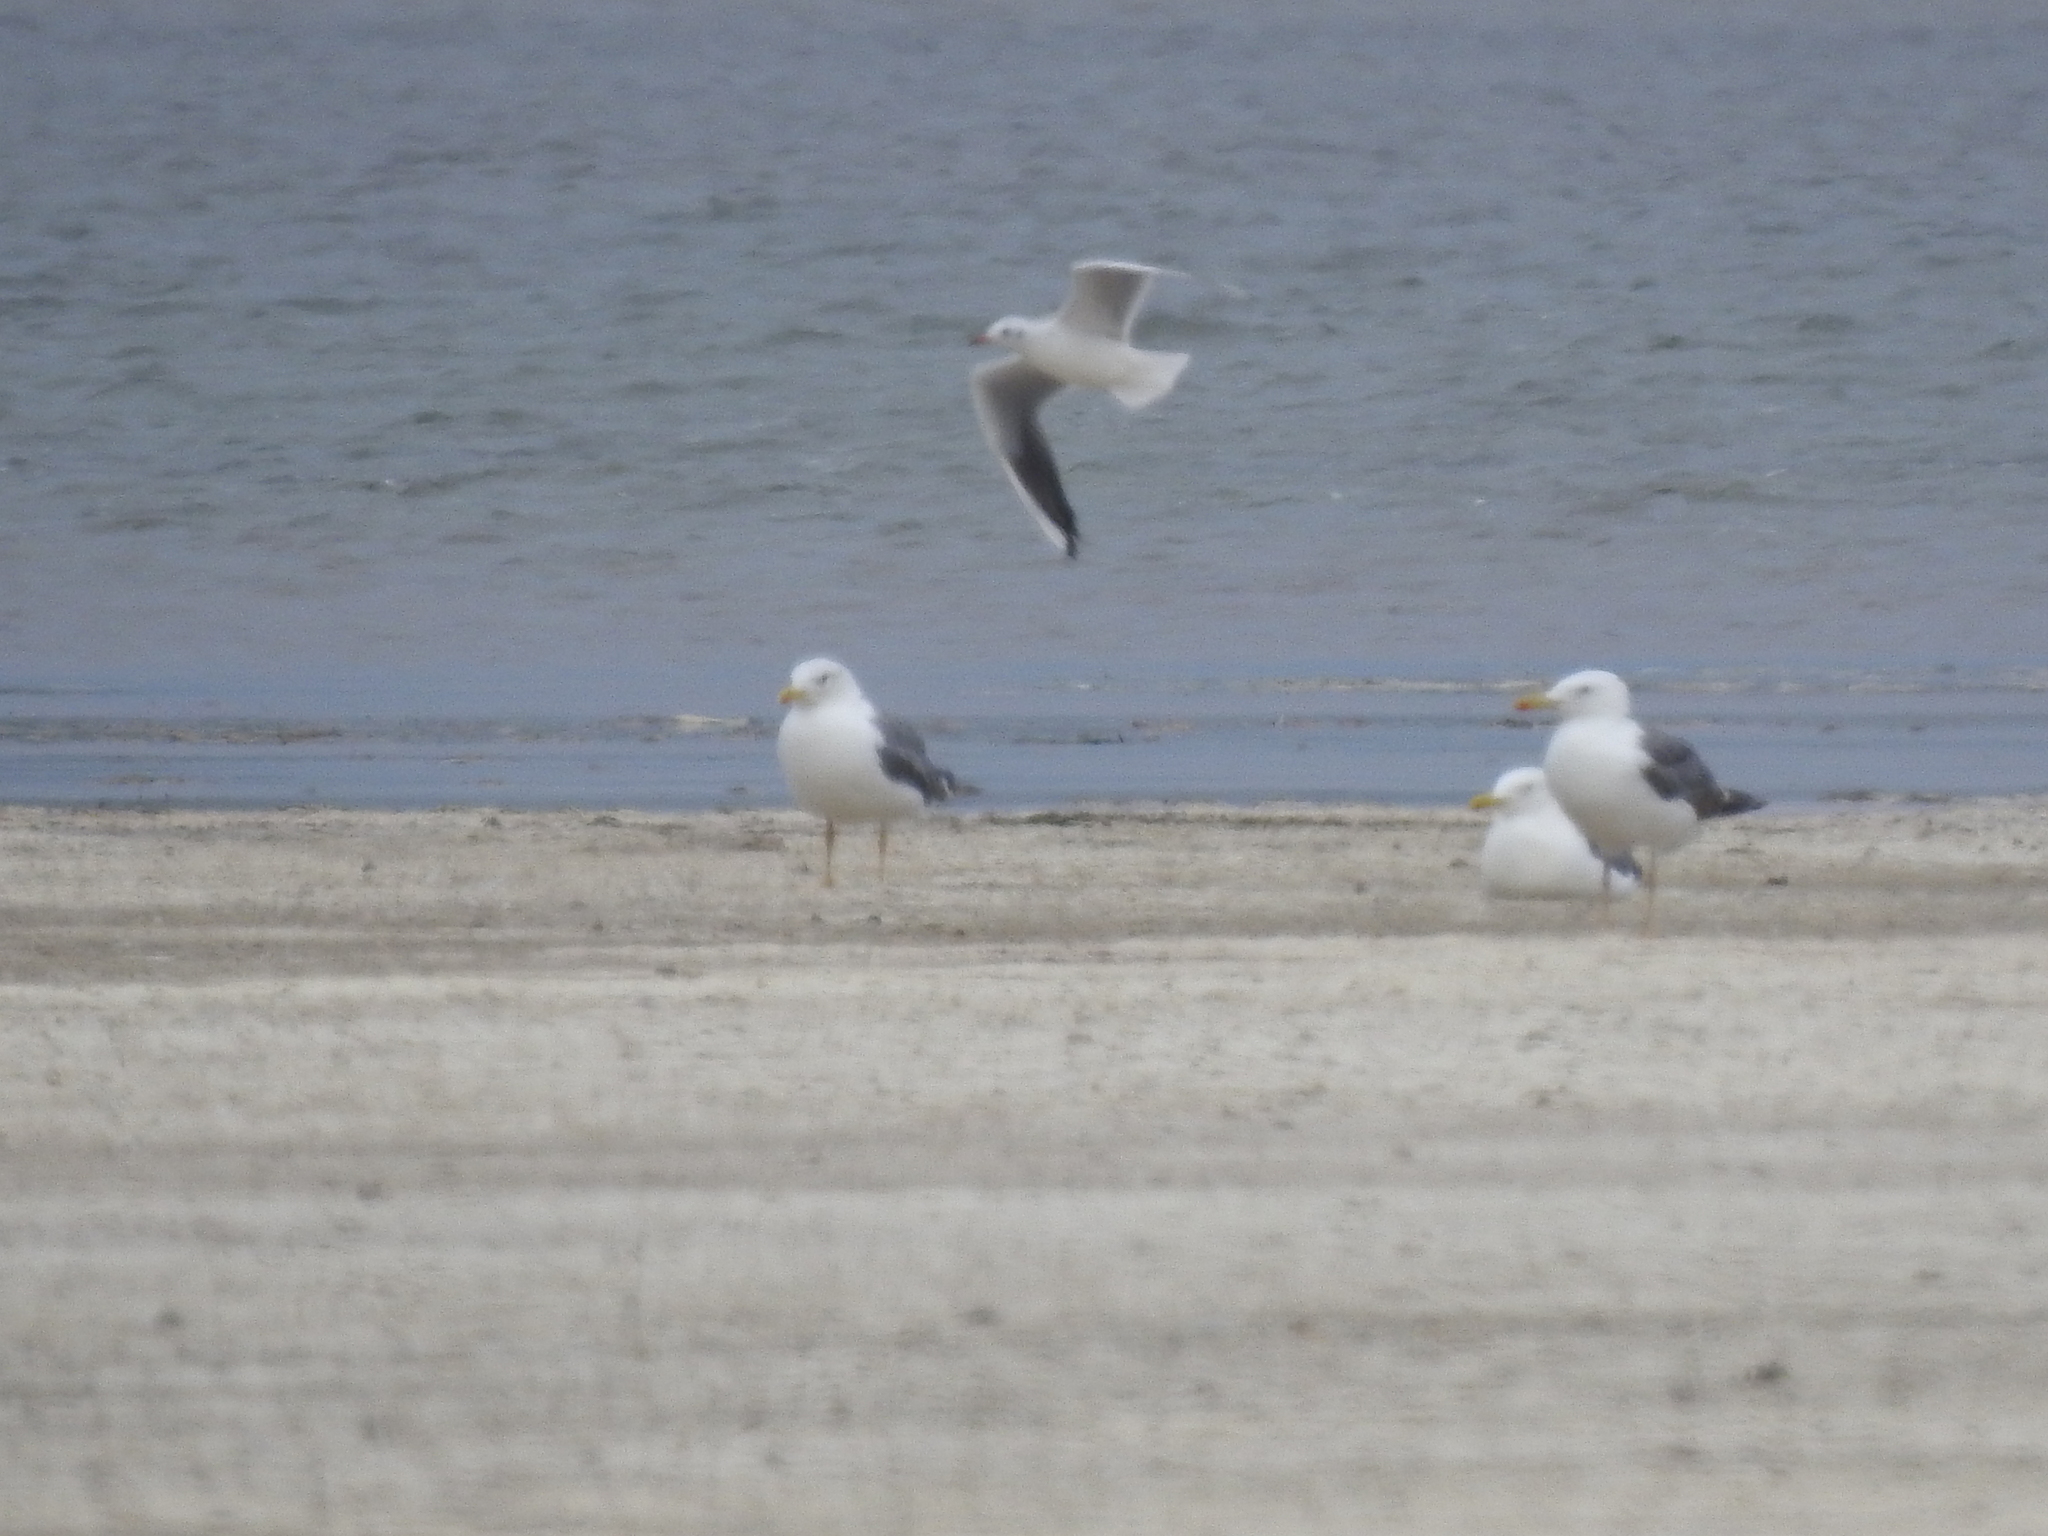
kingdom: Animalia
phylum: Chordata
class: Aves
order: Charadriiformes
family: Laridae
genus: Larus
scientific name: Larus fuscus
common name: Lesser black-backed gull
